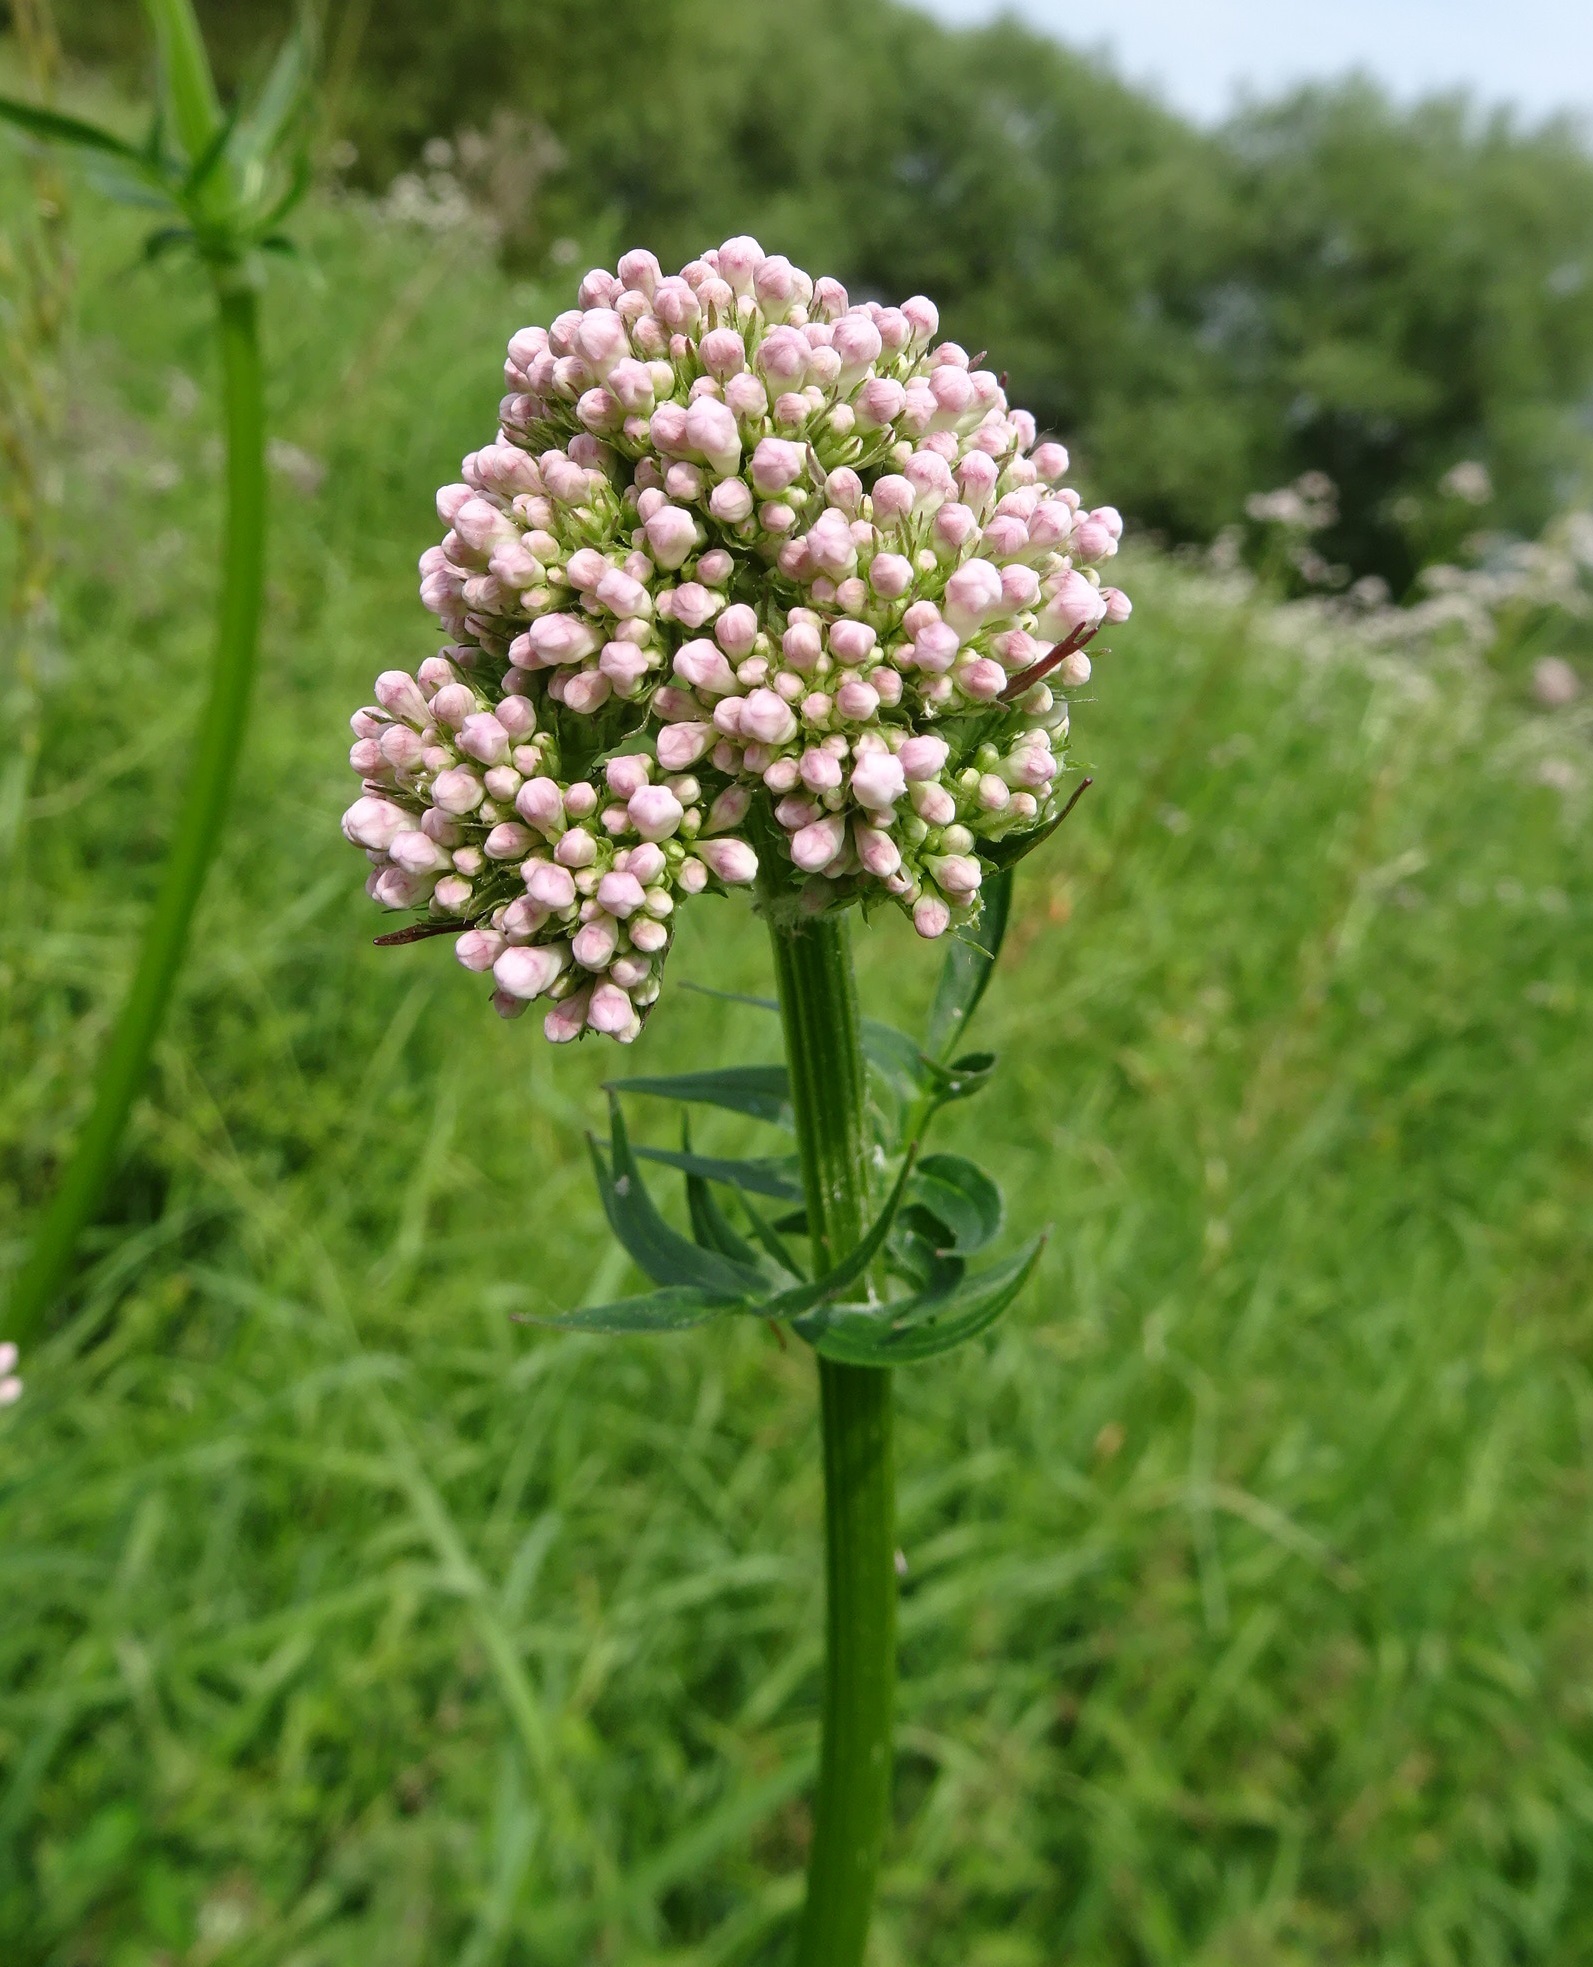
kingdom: Plantae
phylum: Tracheophyta
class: Magnoliopsida
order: Dipsacales
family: Caprifoliaceae
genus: Valeriana
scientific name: Valeriana officinalis
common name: Common valerian
